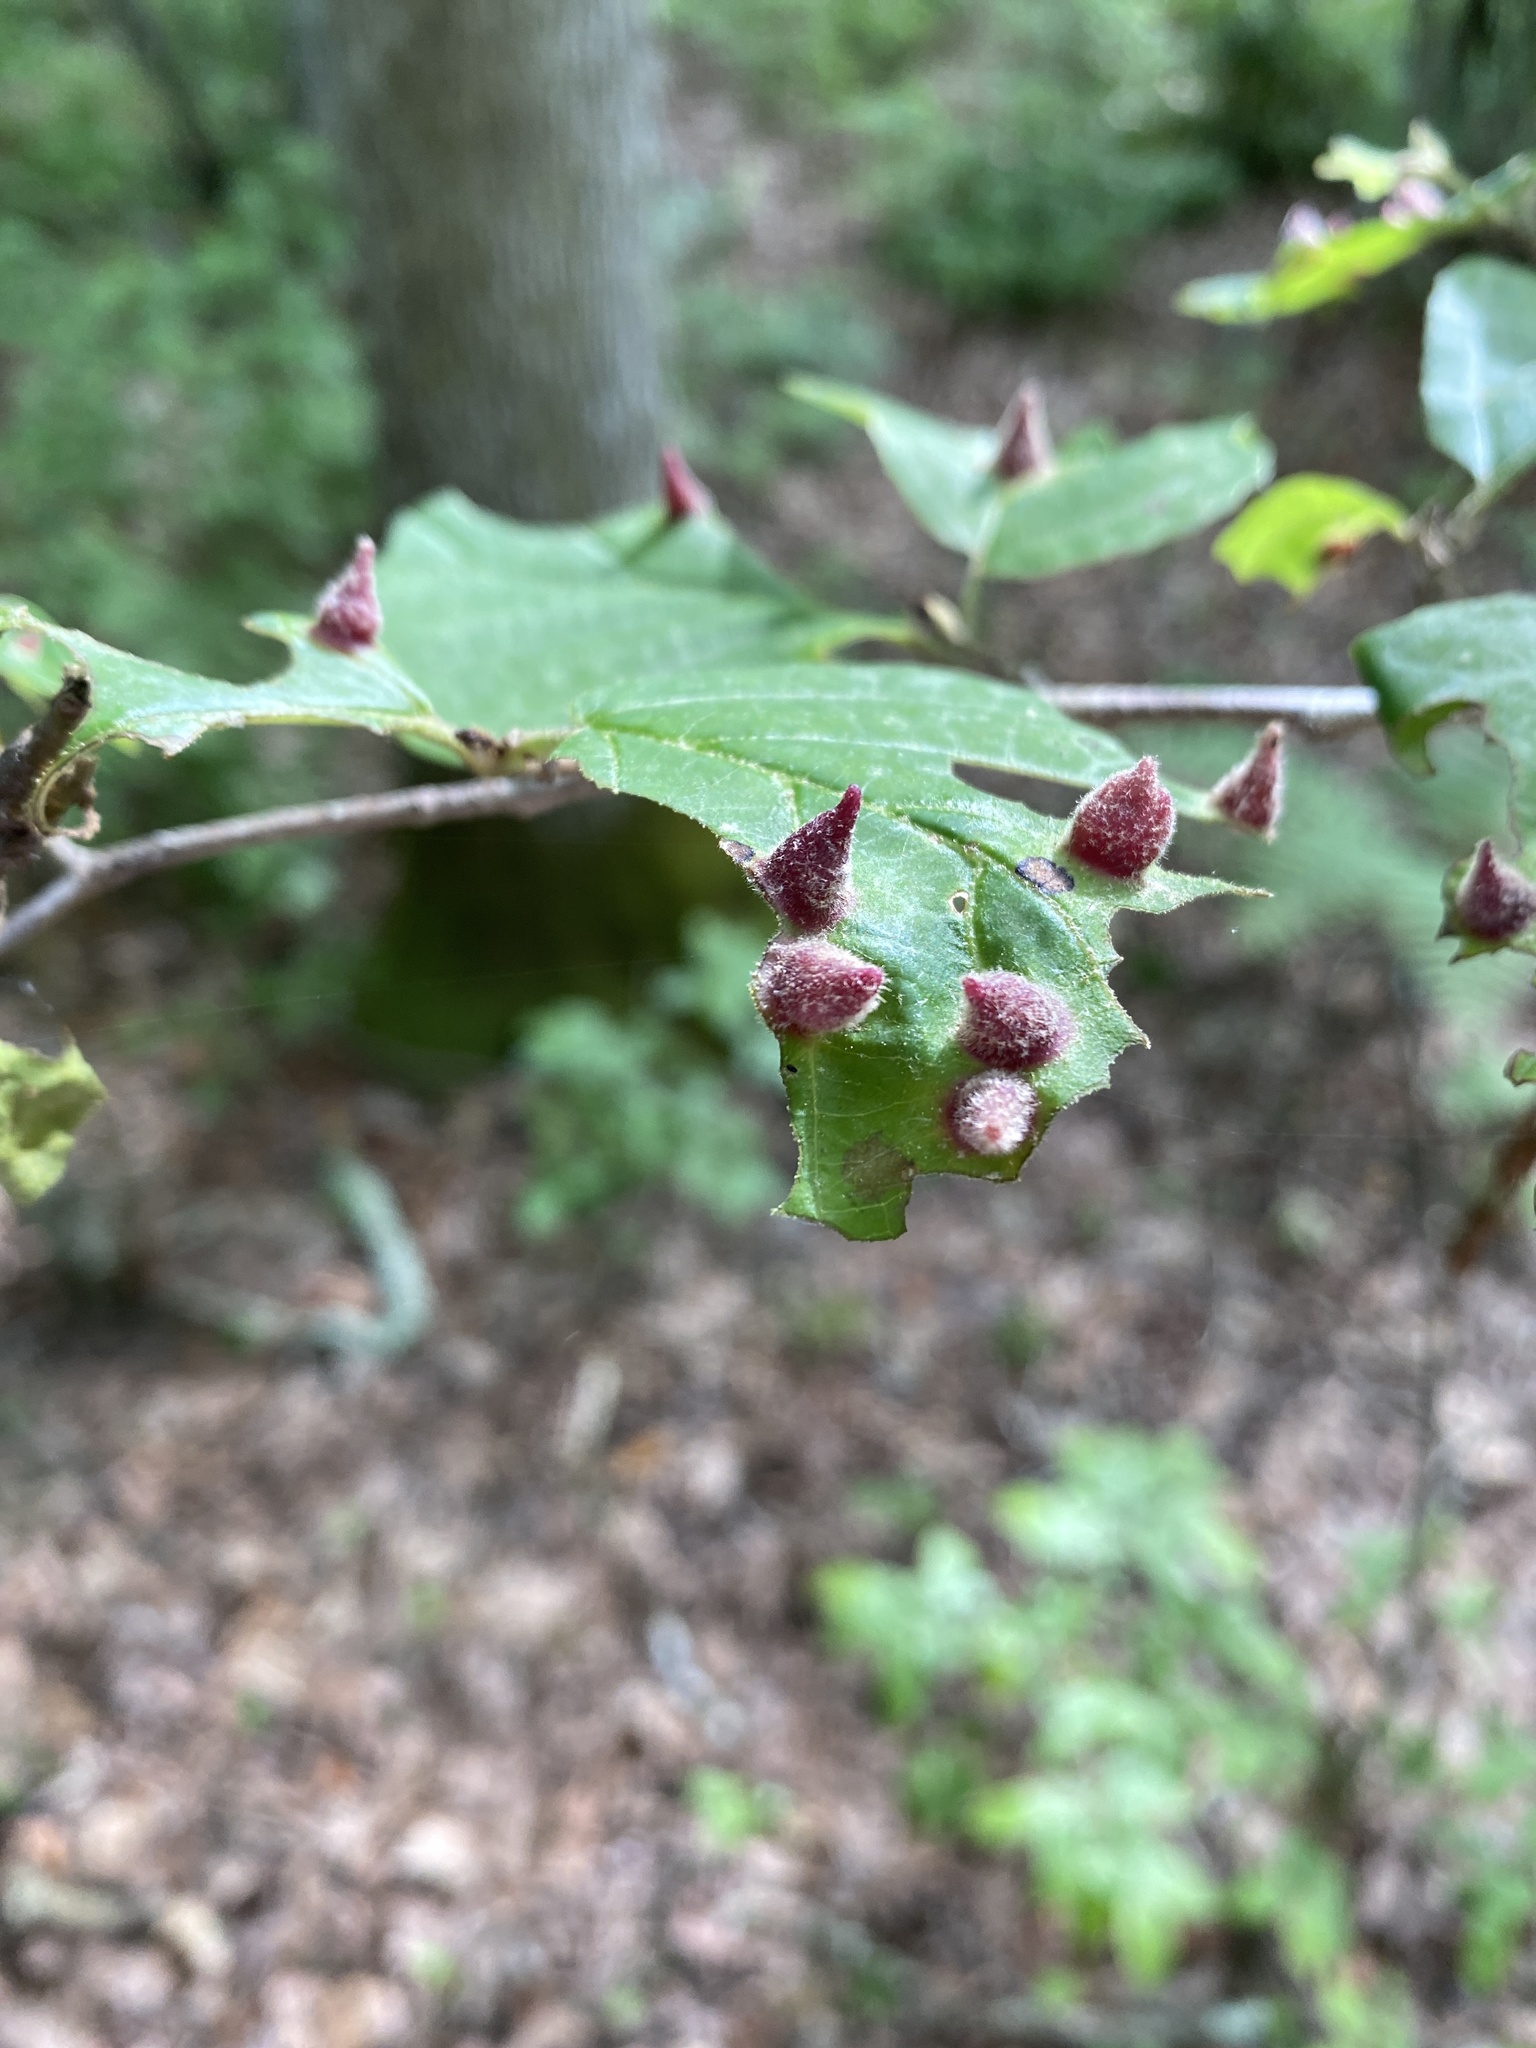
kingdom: Animalia
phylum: Arthropoda
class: Insecta
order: Hemiptera
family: Aphididae
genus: Hormaphis
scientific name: Hormaphis hamamelidis
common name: Witch-hazel cone gall aphid
